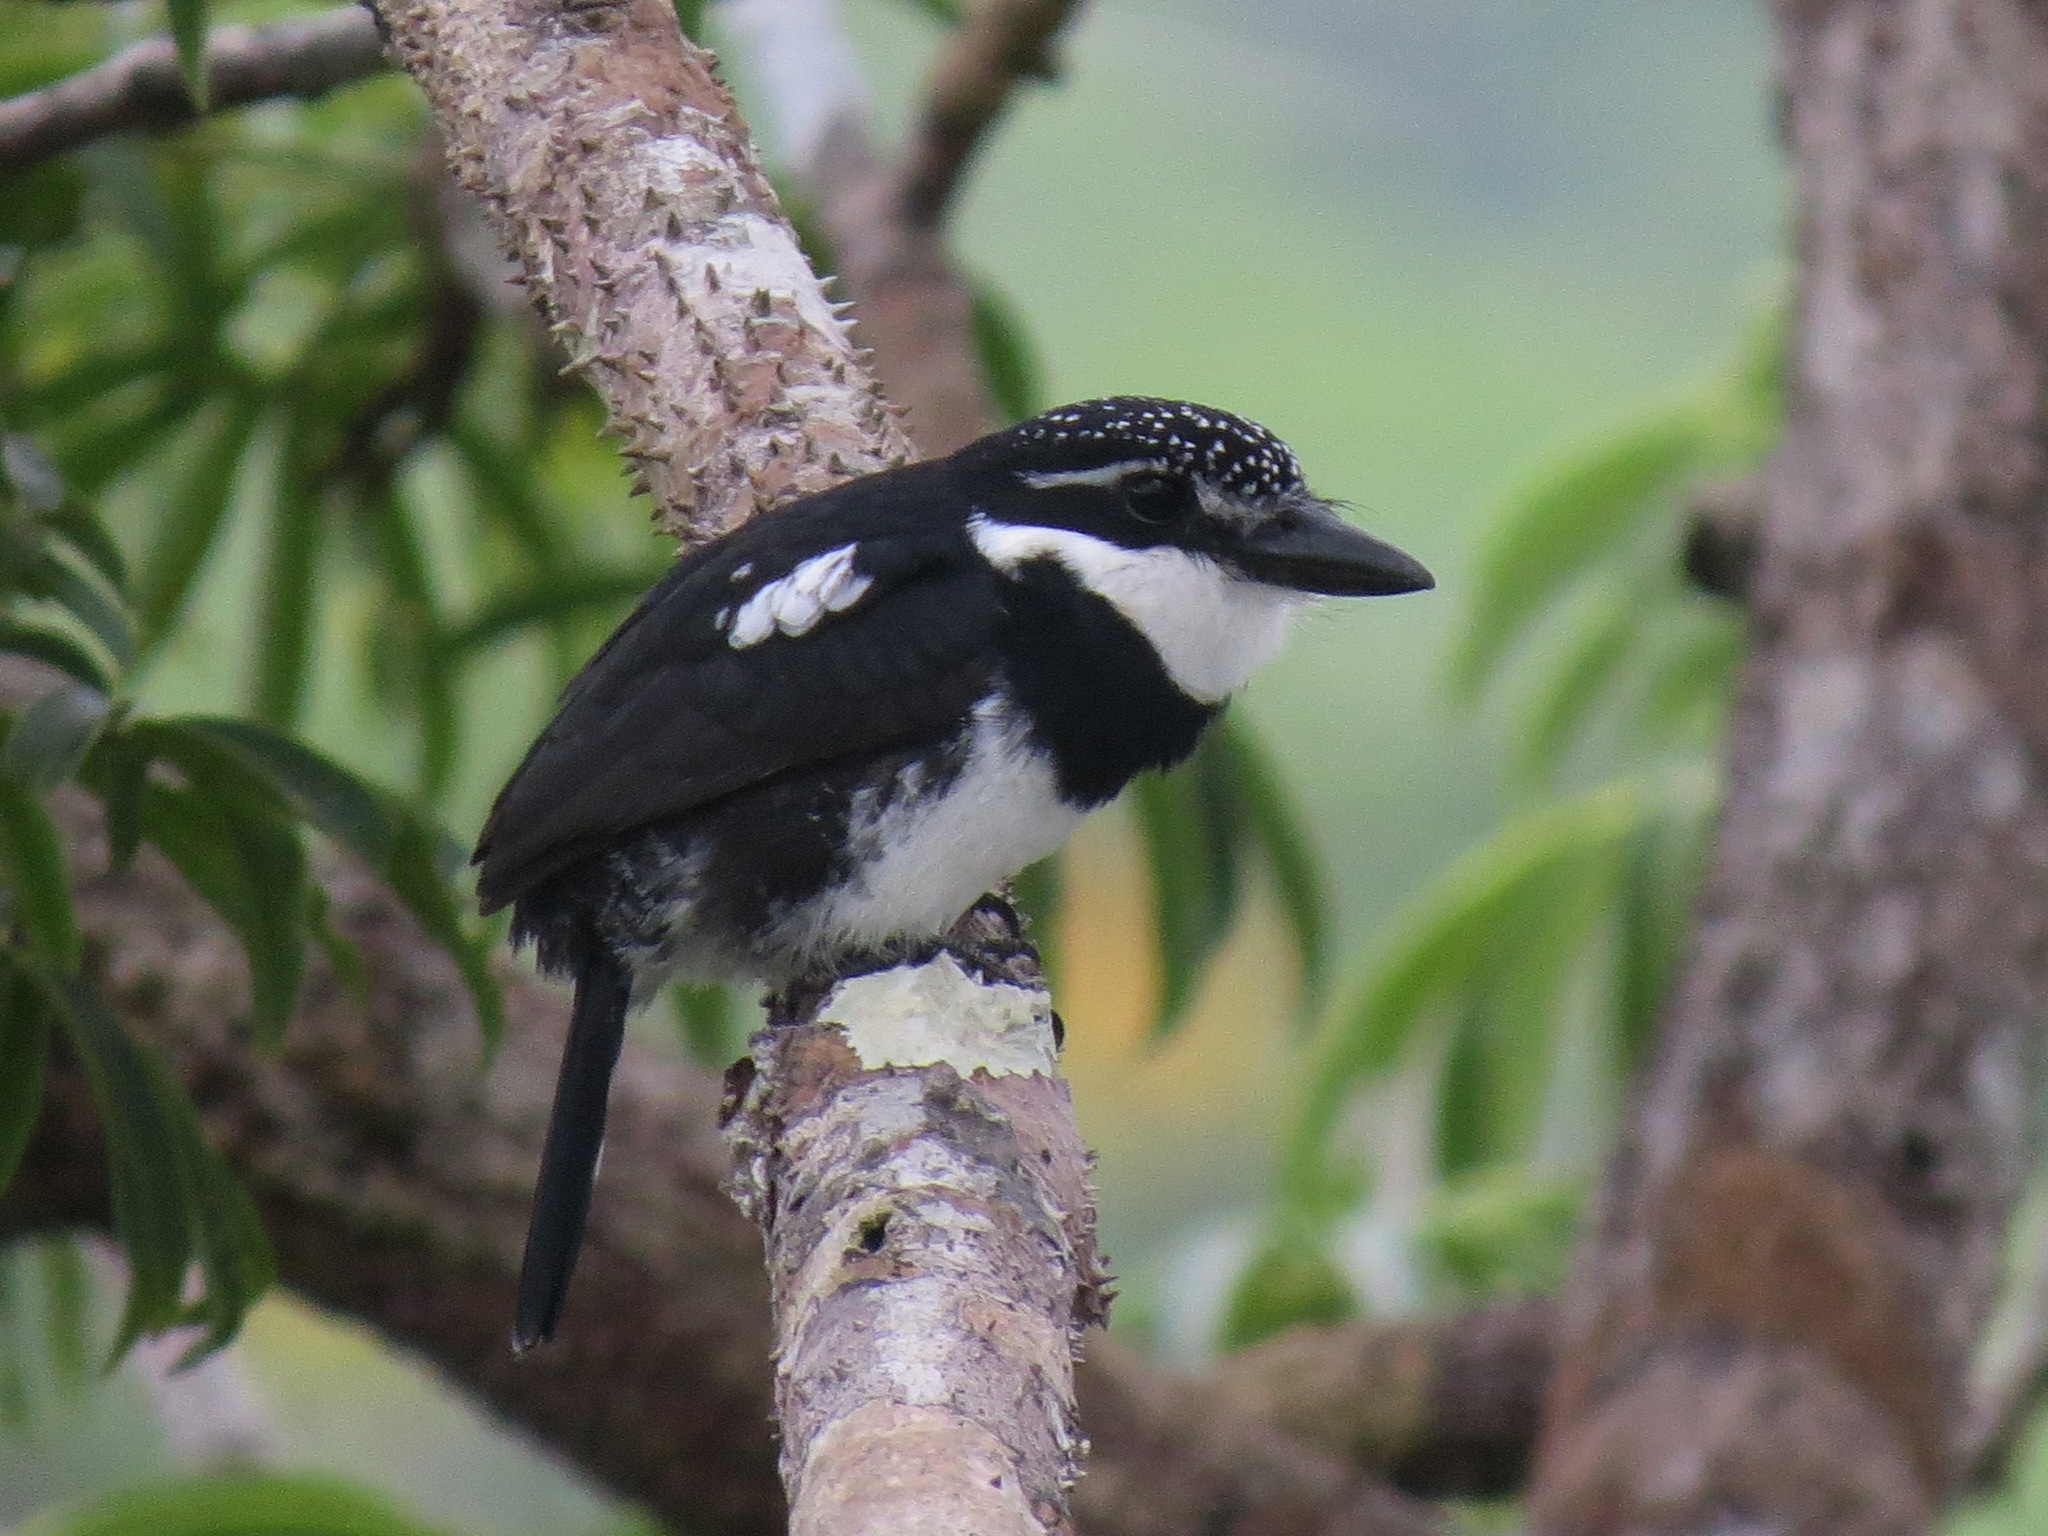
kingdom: Animalia
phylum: Chordata
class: Aves
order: Piciformes
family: Bucconidae
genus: Notharchus
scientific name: Notharchus tectus
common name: Pied puffbird
